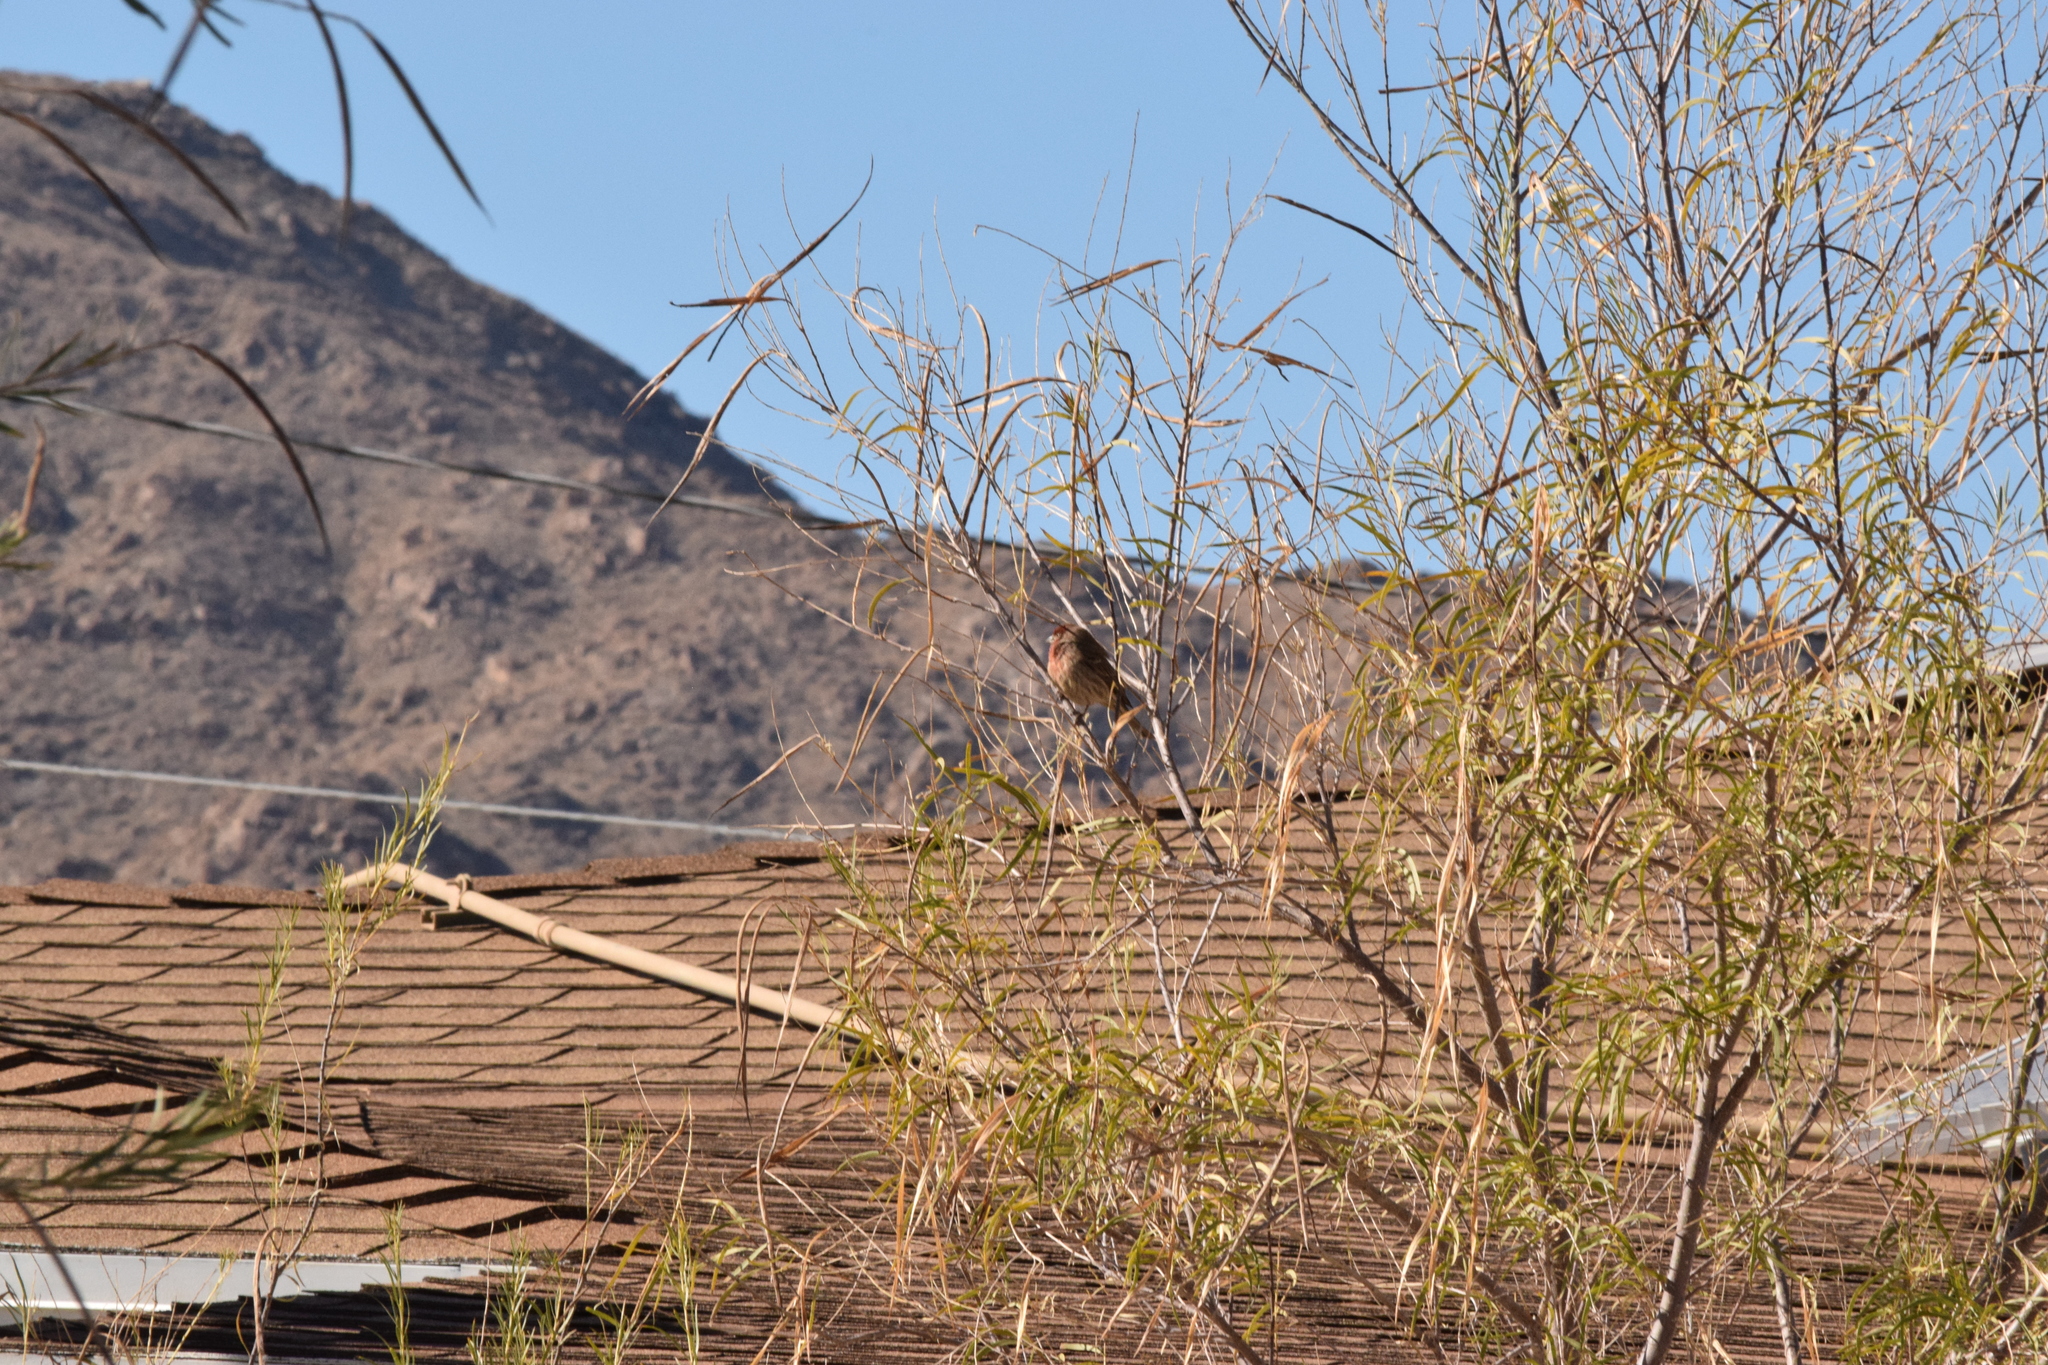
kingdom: Animalia
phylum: Chordata
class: Aves
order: Passeriformes
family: Fringillidae
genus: Haemorhous
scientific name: Haemorhous mexicanus
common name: House finch
